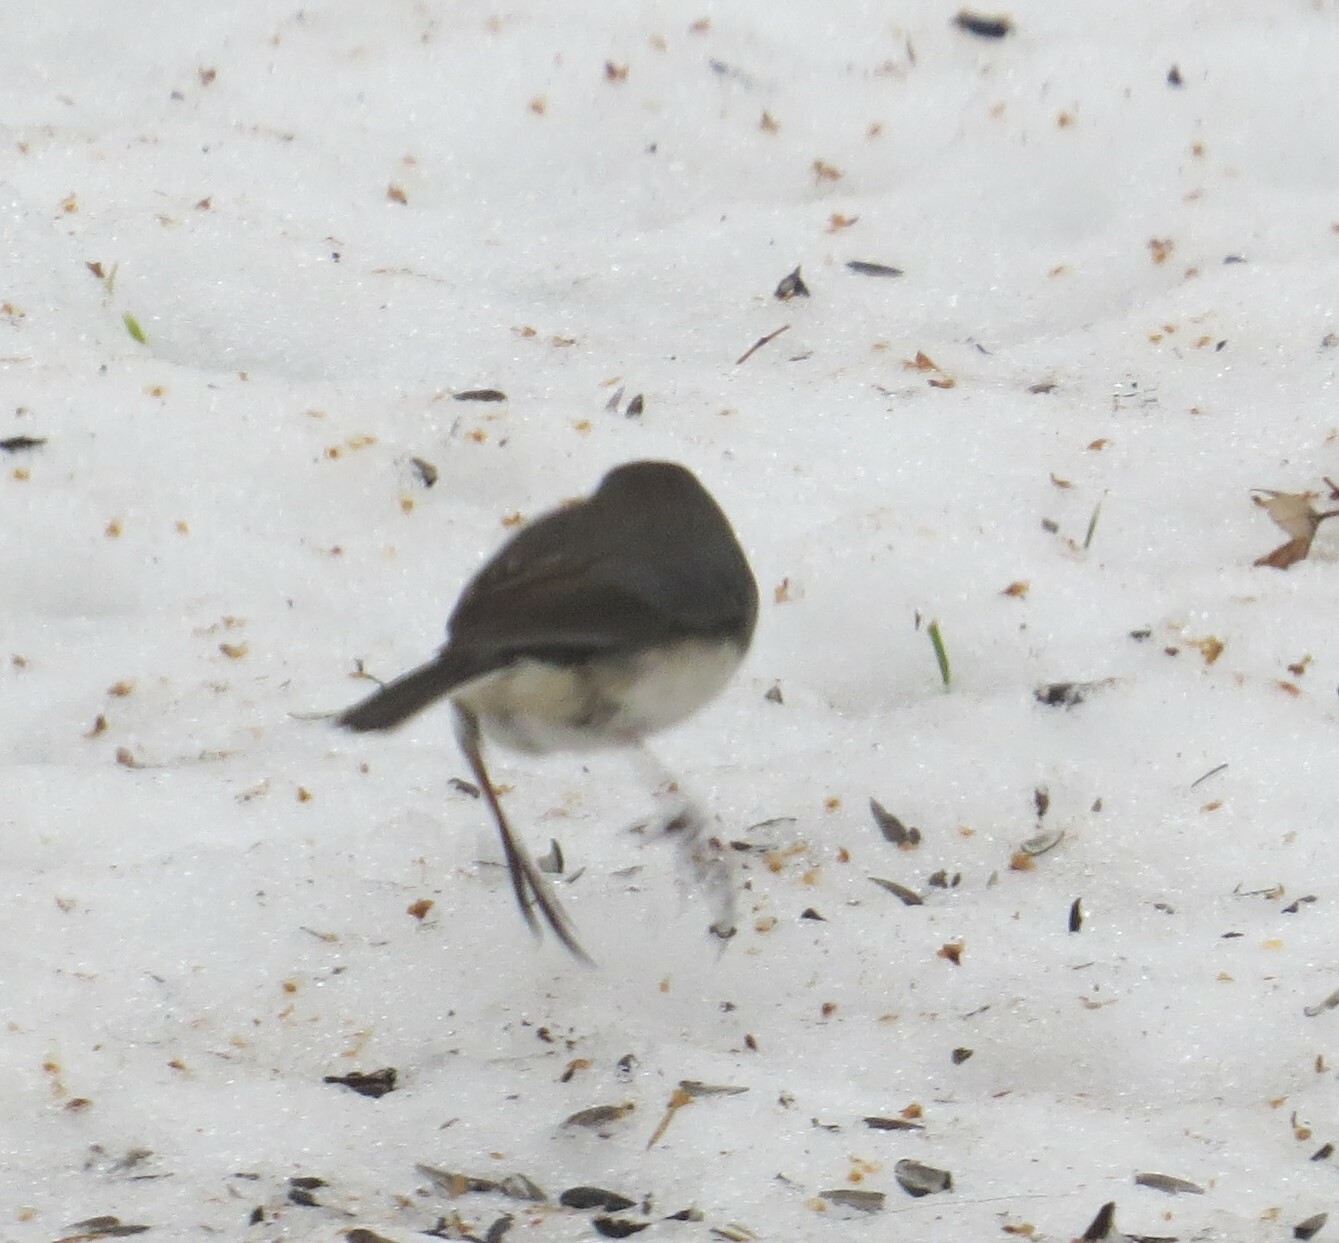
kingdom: Animalia
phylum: Chordata
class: Aves
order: Passeriformes
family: Passerellidae
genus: Junco
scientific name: Junco hyemalis
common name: Dark-eyed junco
